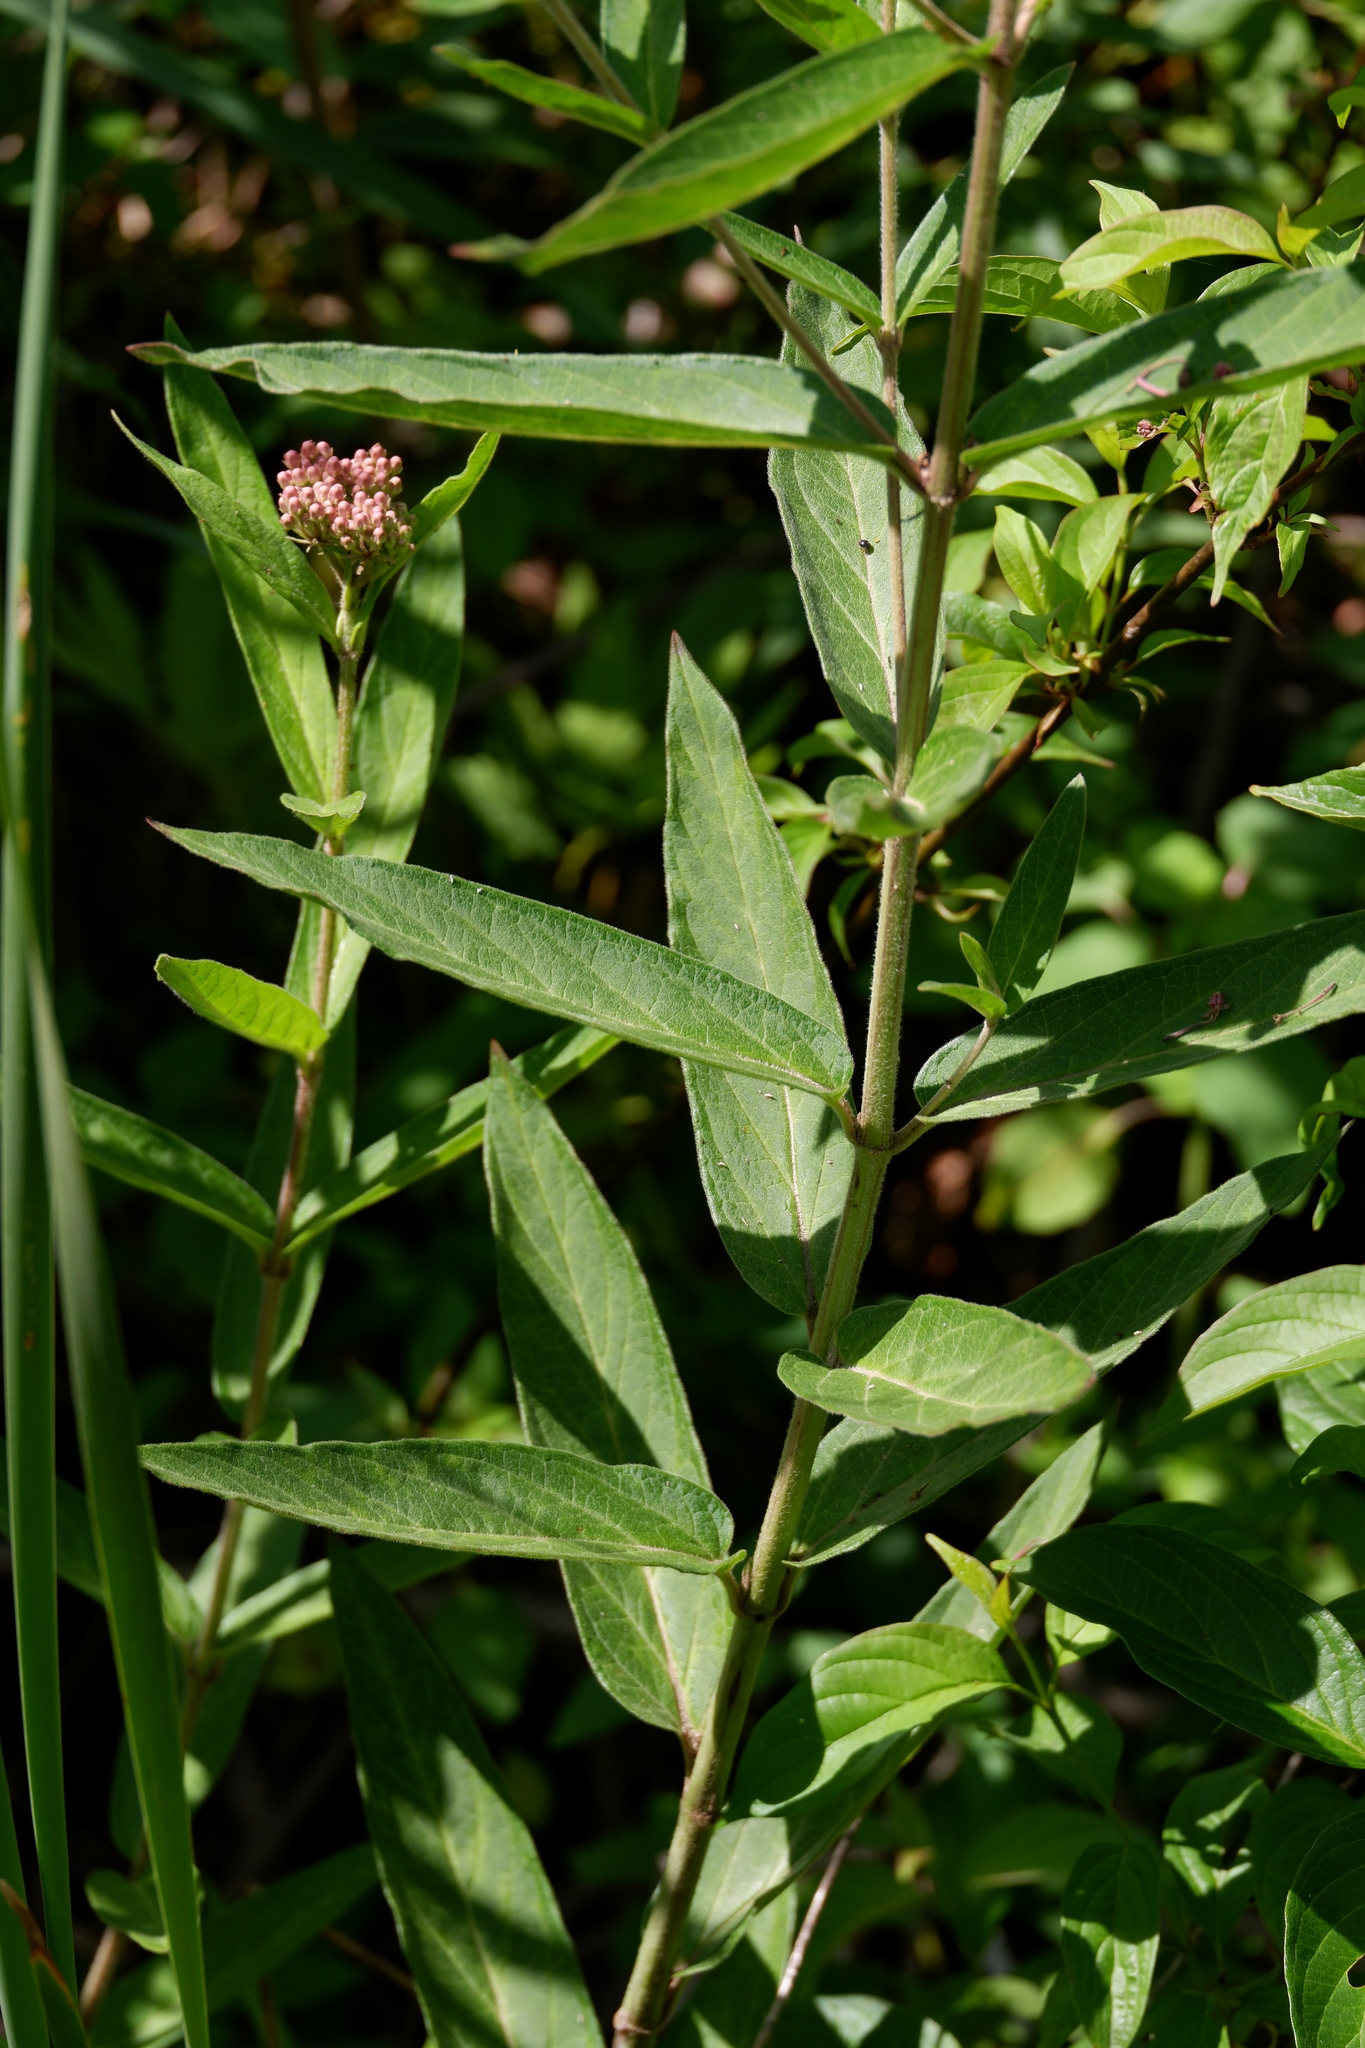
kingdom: Plantae
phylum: Tracheophyta
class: Magnoliopsida
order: Gentianales
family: Apocynaceae
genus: Asclepias
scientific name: Asclepias incarnata
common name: Swamp milkweed
